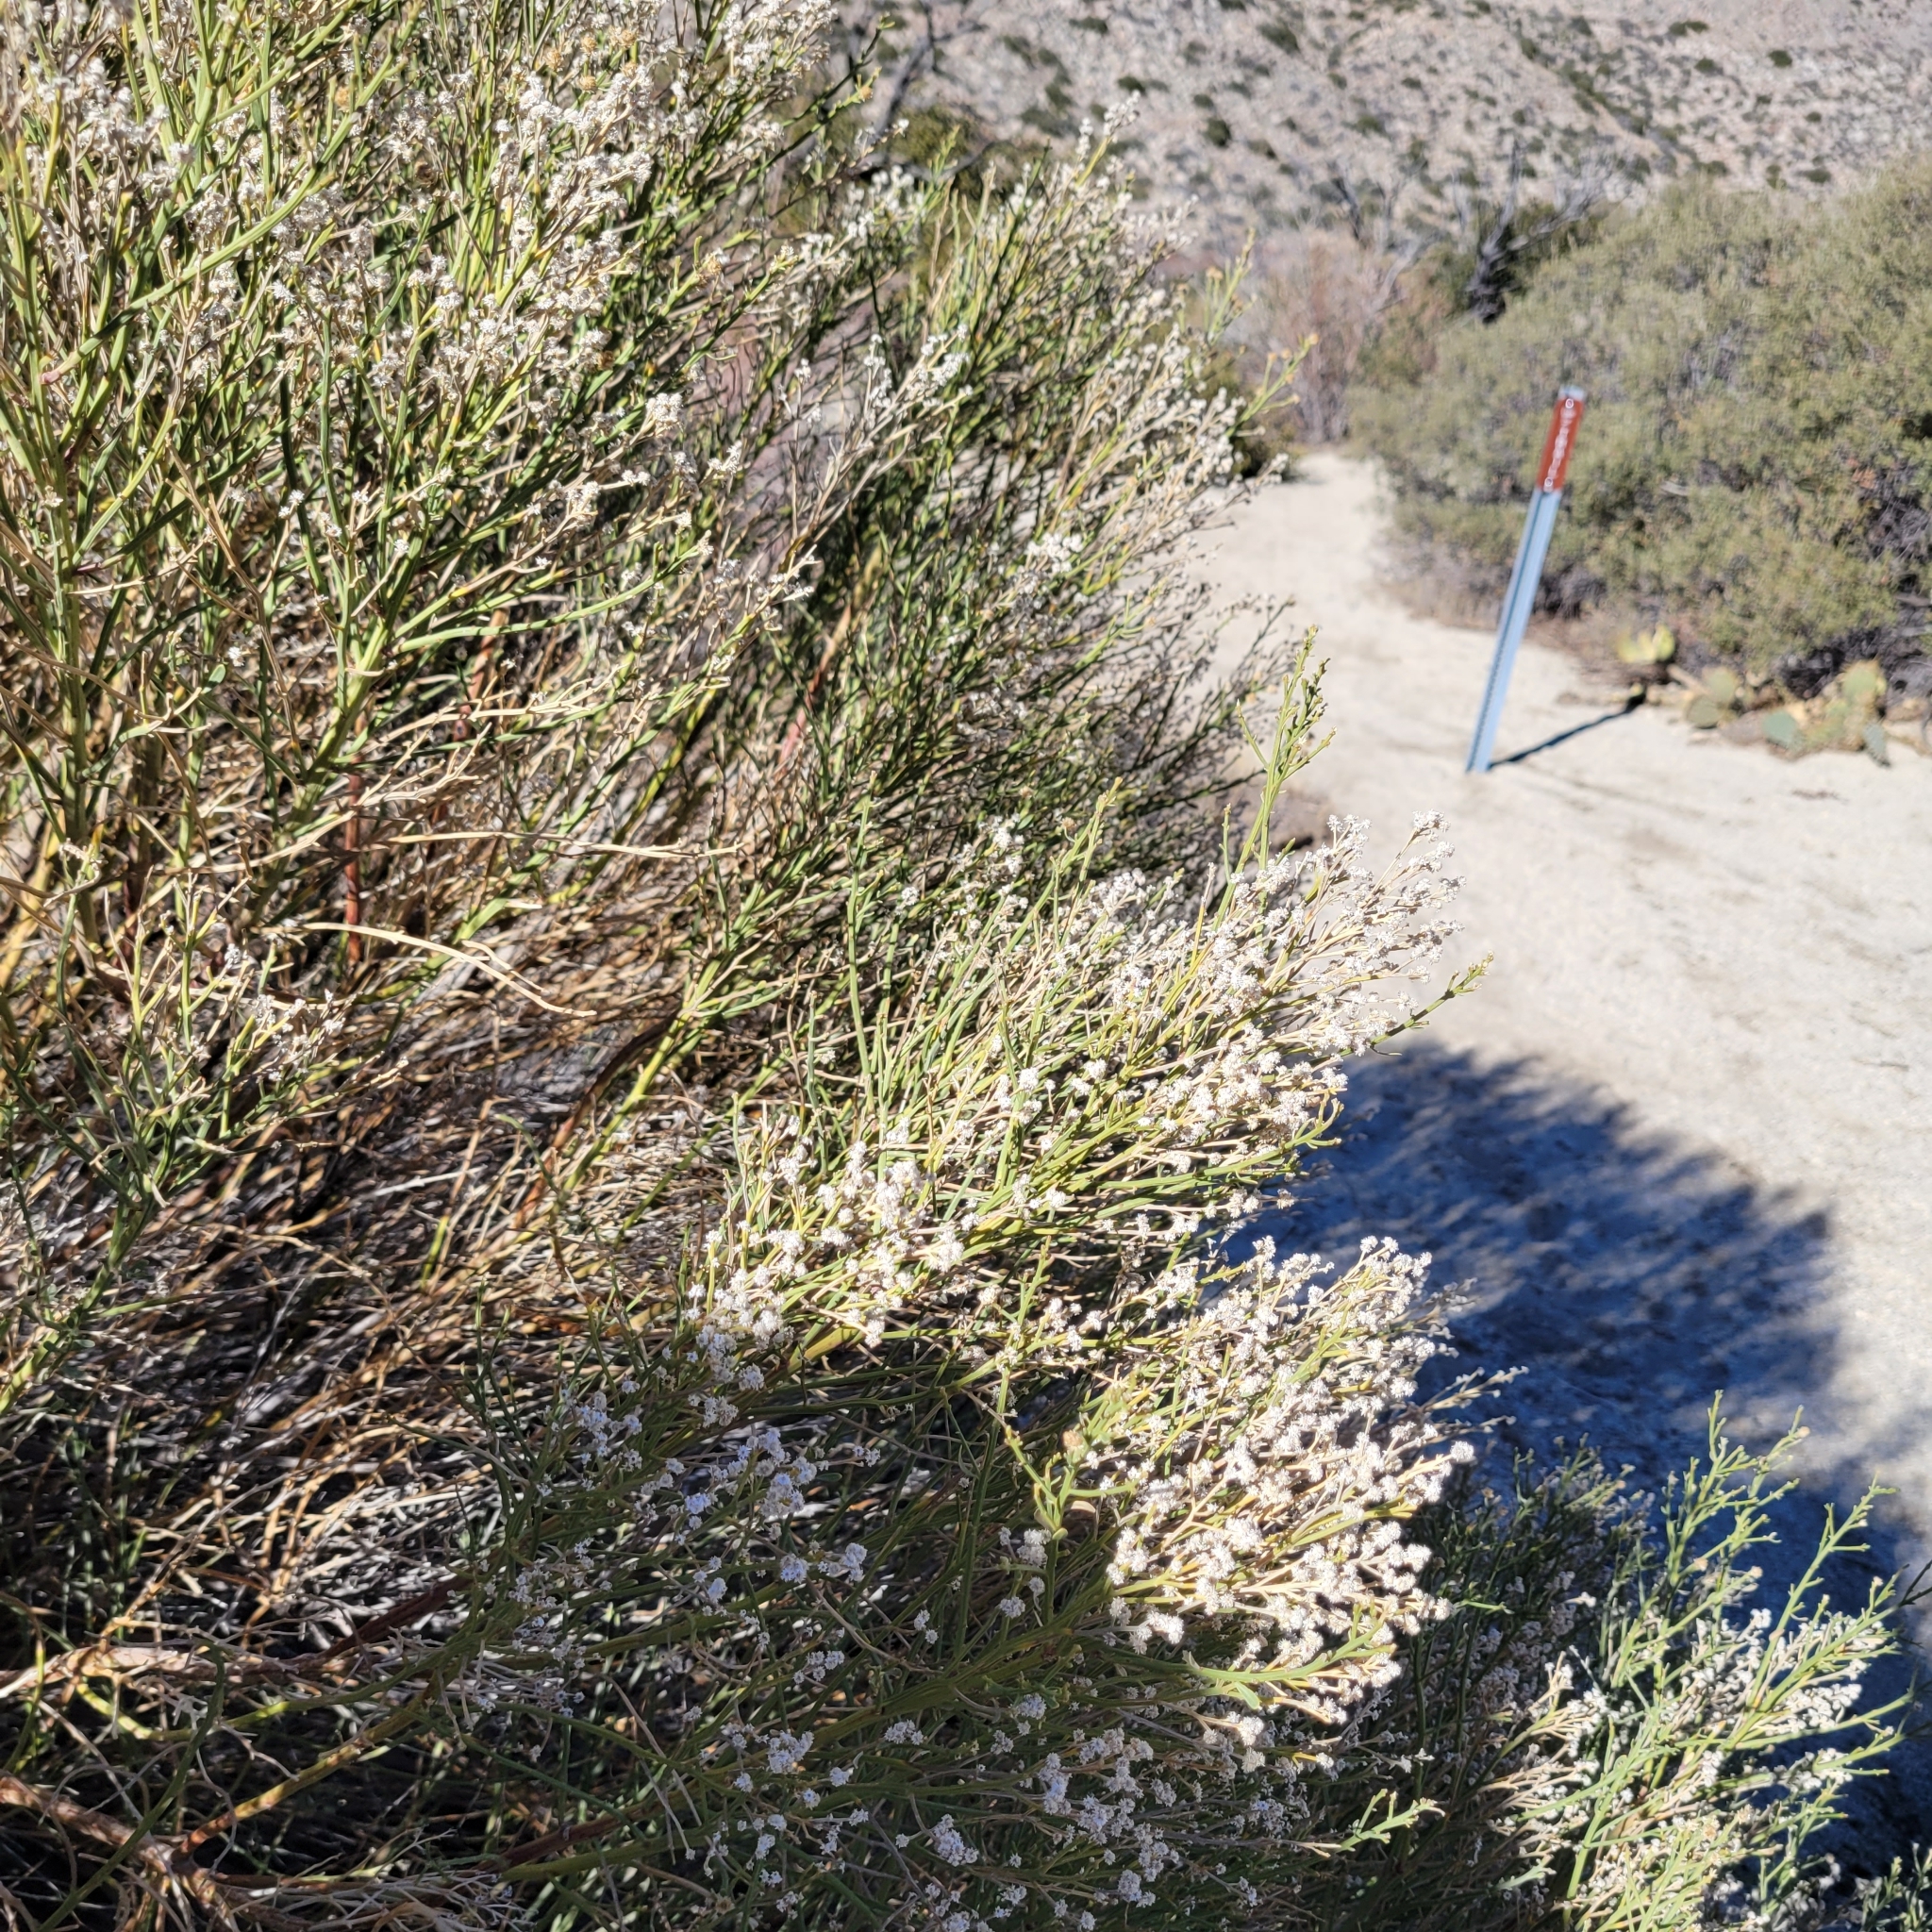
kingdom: Plantae
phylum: Tracheophyta
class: Magnoliopsida
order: Asterales
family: Asteraceae
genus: Baccharis
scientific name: Baccharis sergiloides
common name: Desert baccharis
